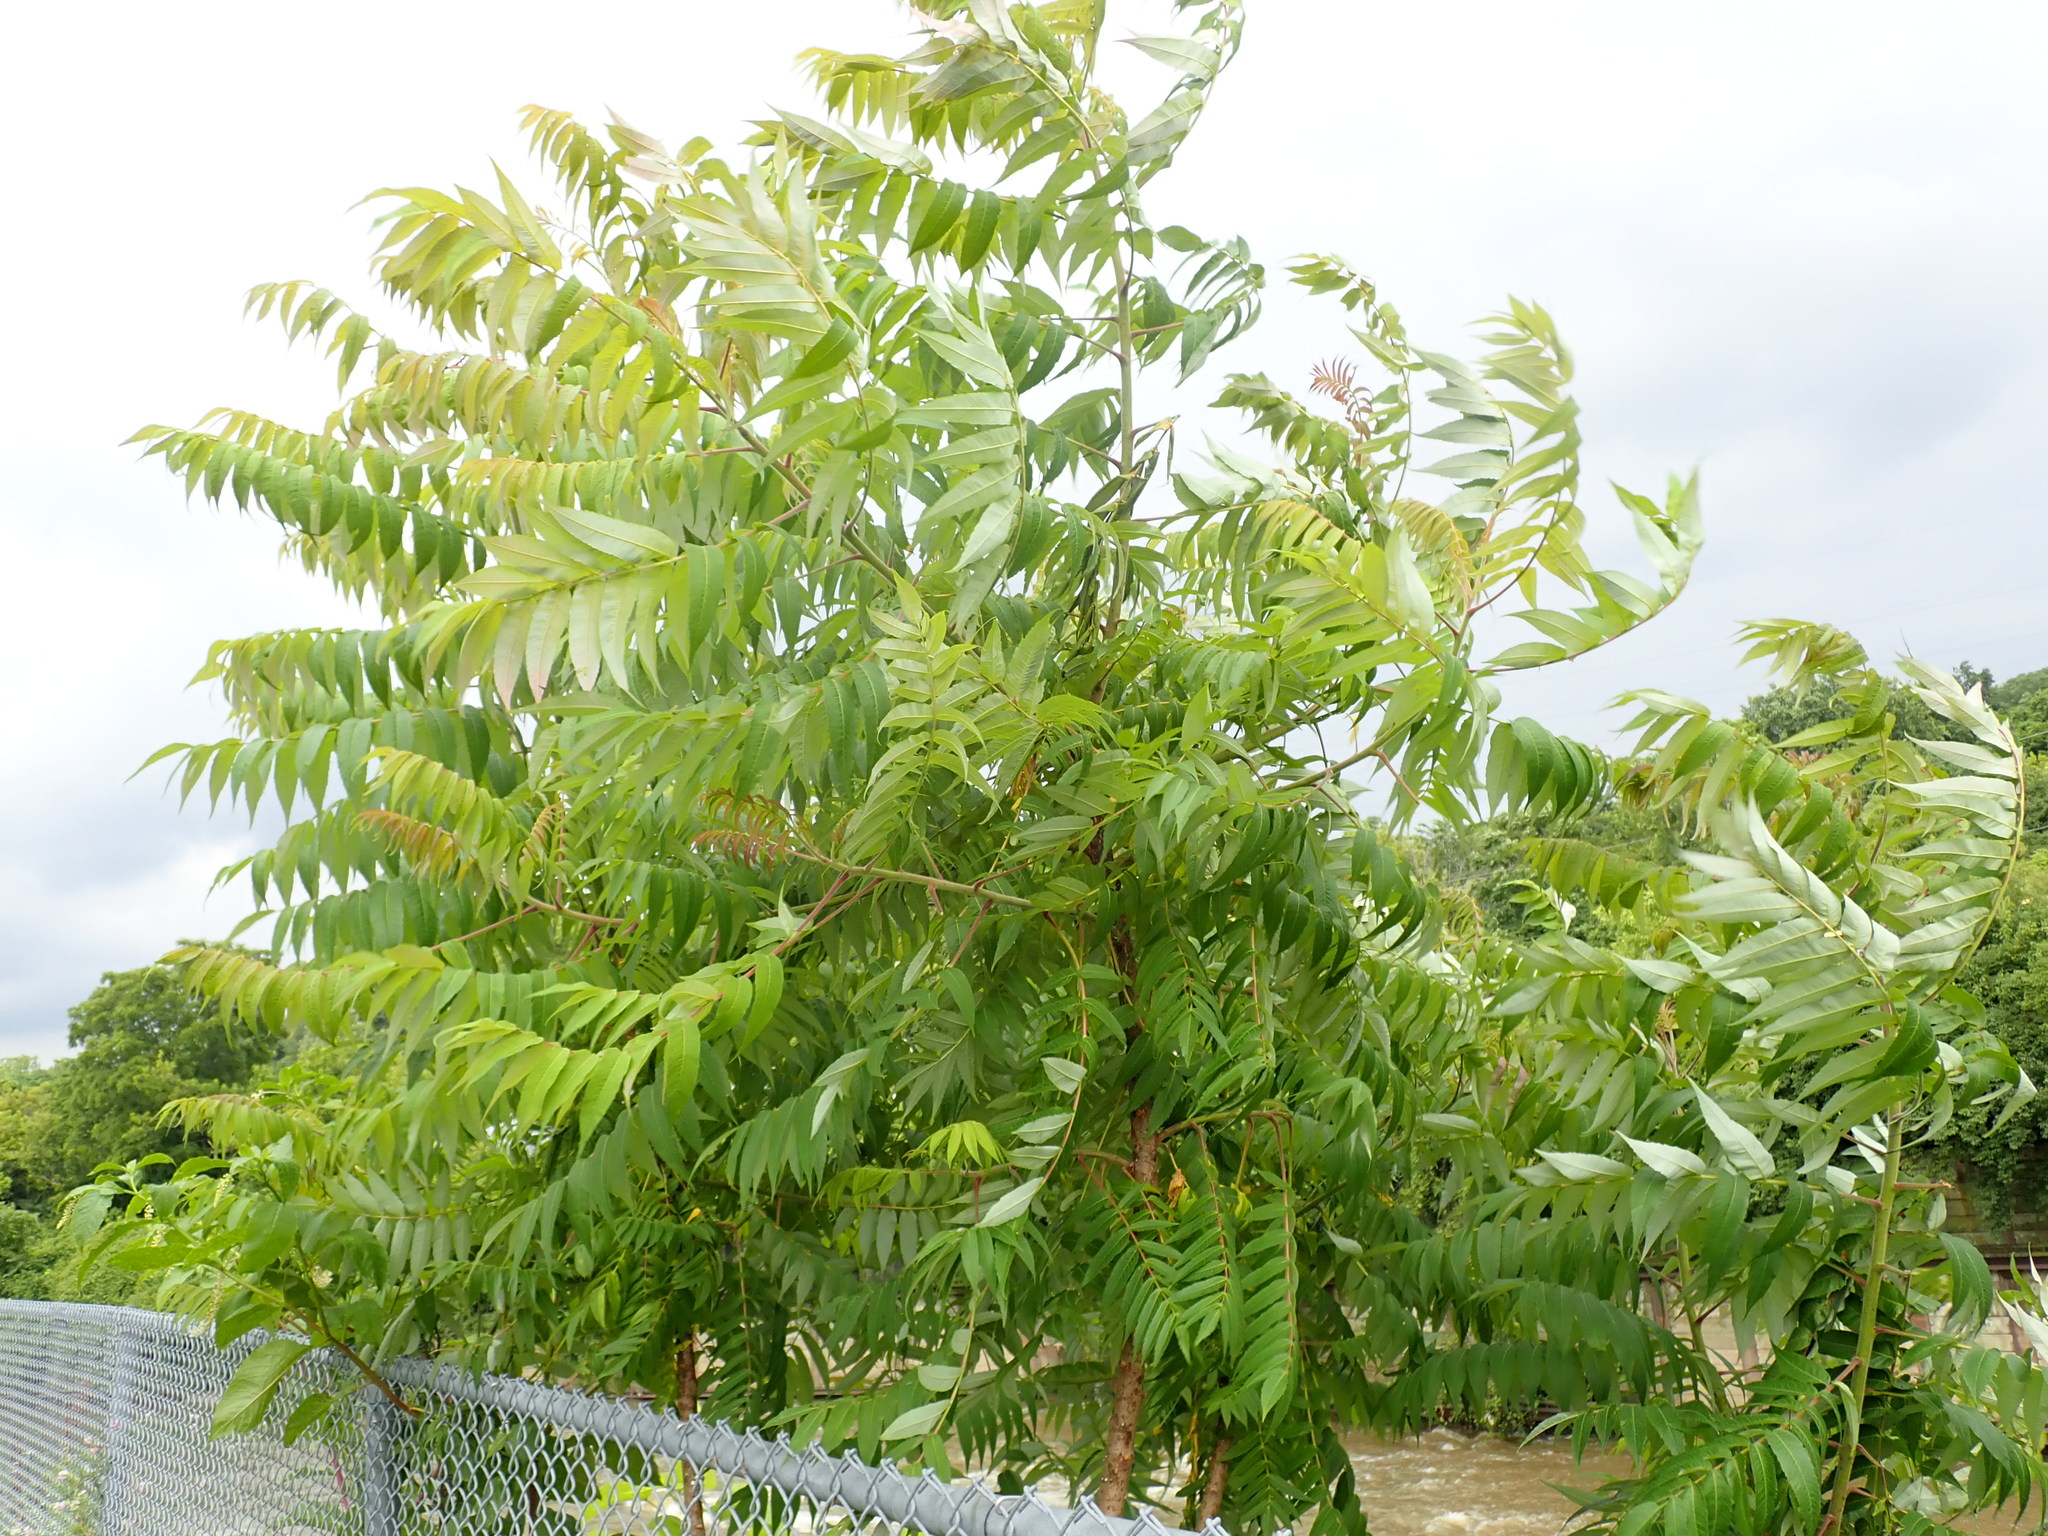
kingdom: Plantae
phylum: Tracheophyta
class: Magnoliopsida
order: Sapindales
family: Anacardiaceae
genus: Rhus
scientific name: Rhus typhina
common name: Staghorn sumac
